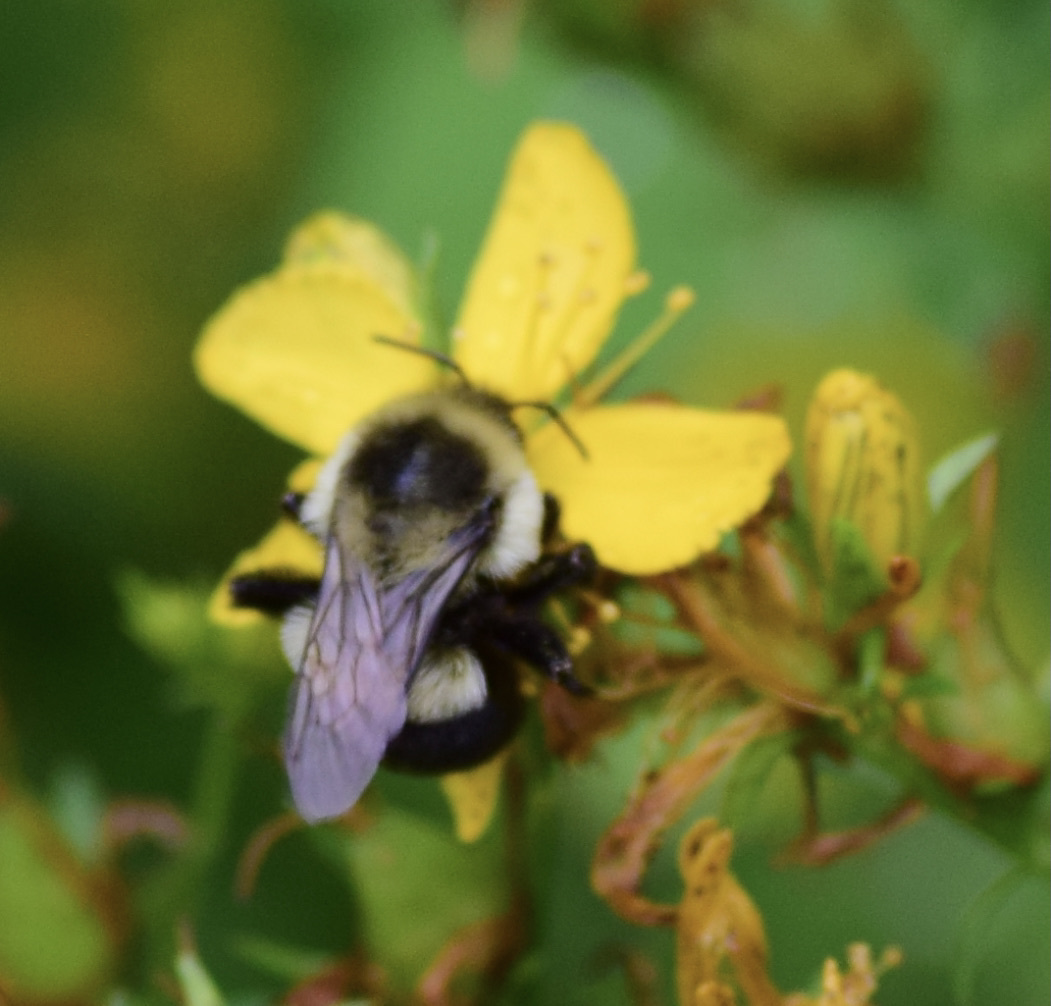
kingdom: Animalia
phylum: Arthropoda
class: Insecta
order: Hymenoptera
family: Apidae
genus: Bombus
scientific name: Bombus impatiens
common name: Common eastern bumble bee
